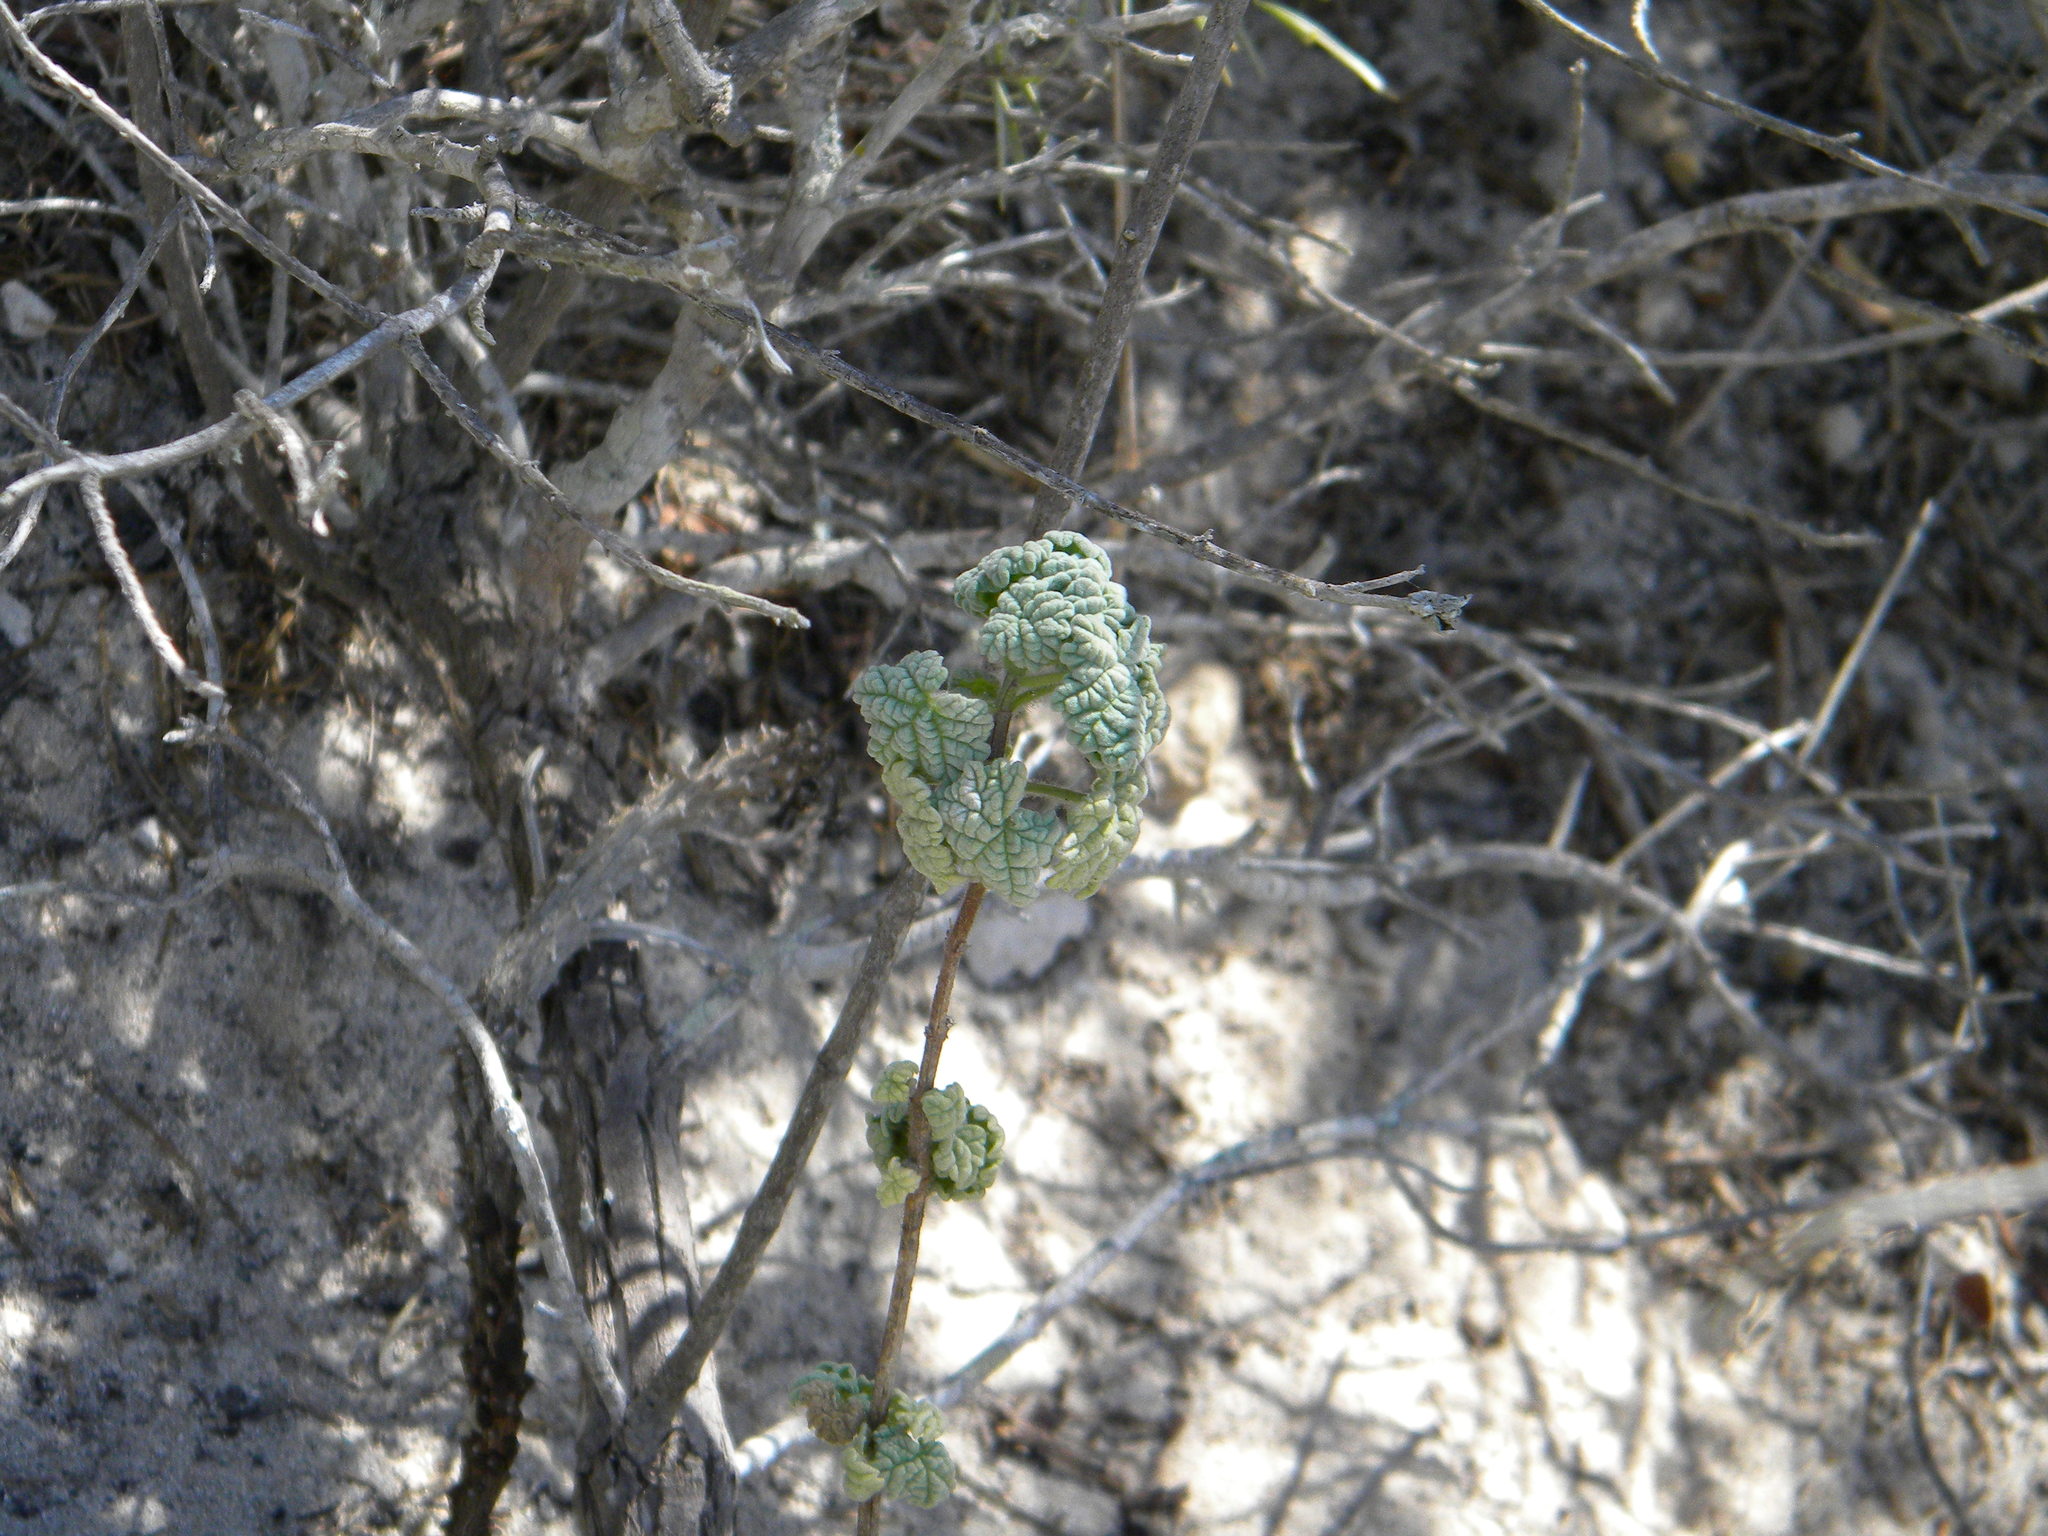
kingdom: Plantae
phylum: Tracheophyta
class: Magnoliopsida
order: Lamiales
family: Lamiaceae
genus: Pseudodictamnus
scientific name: Pseudodictamnus africanus
